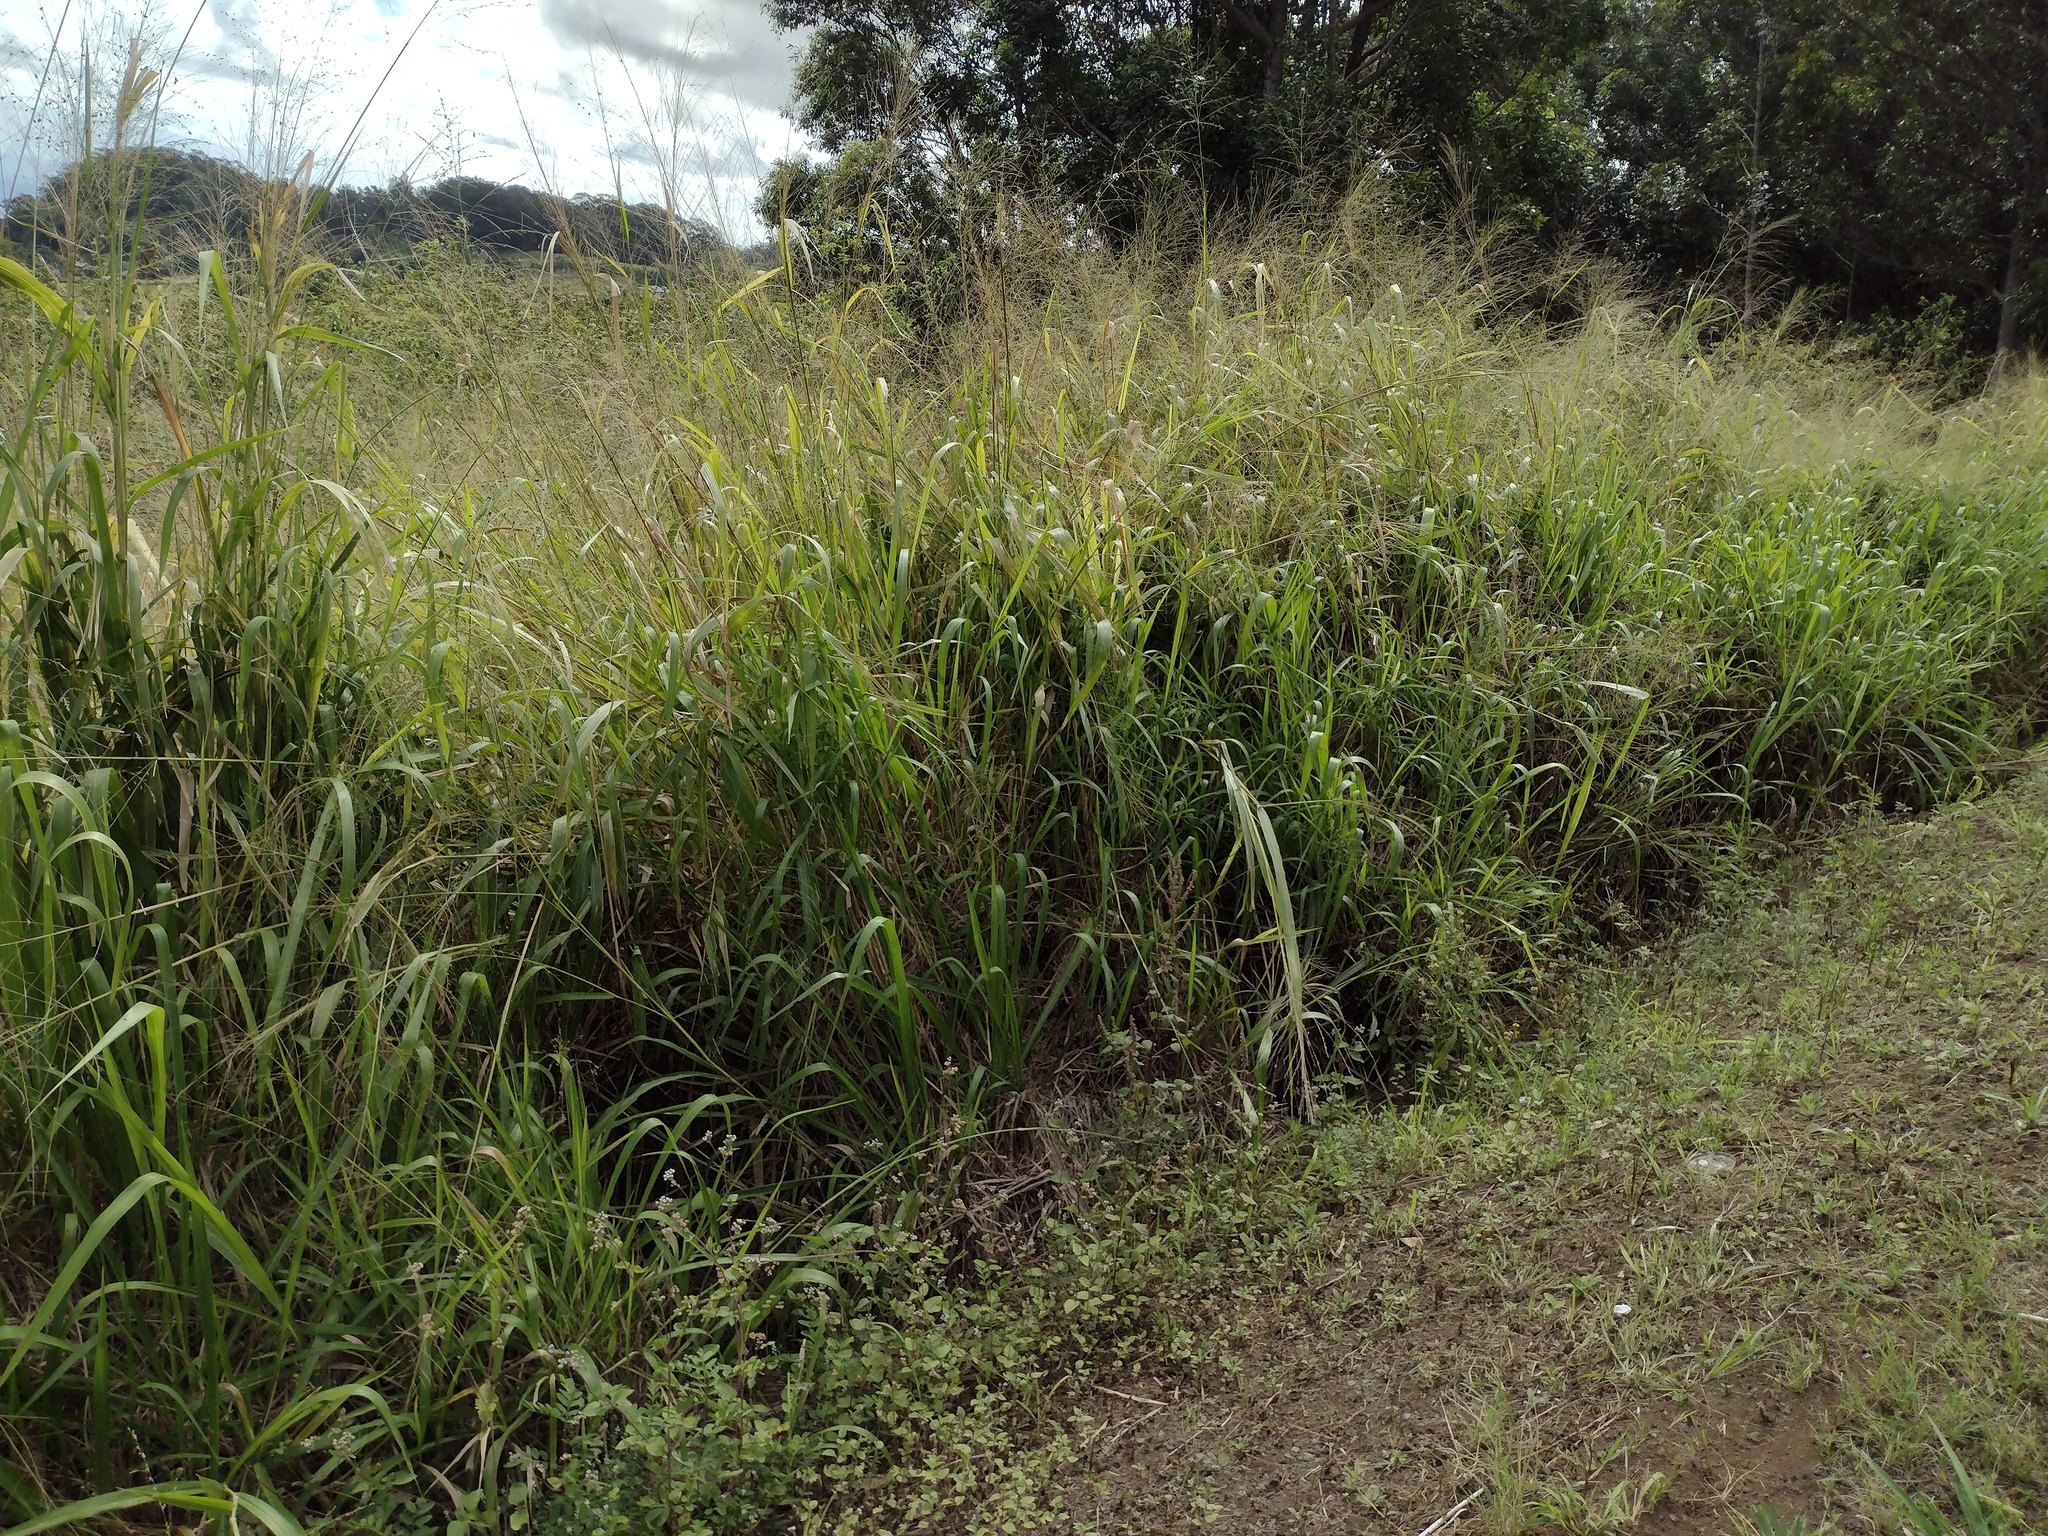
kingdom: Plantae
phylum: Tracheophyta
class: Liliopsida
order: Poales
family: Poaceae
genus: Megathyrsus
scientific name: Megathyrsus maximus
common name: Guineagrass
